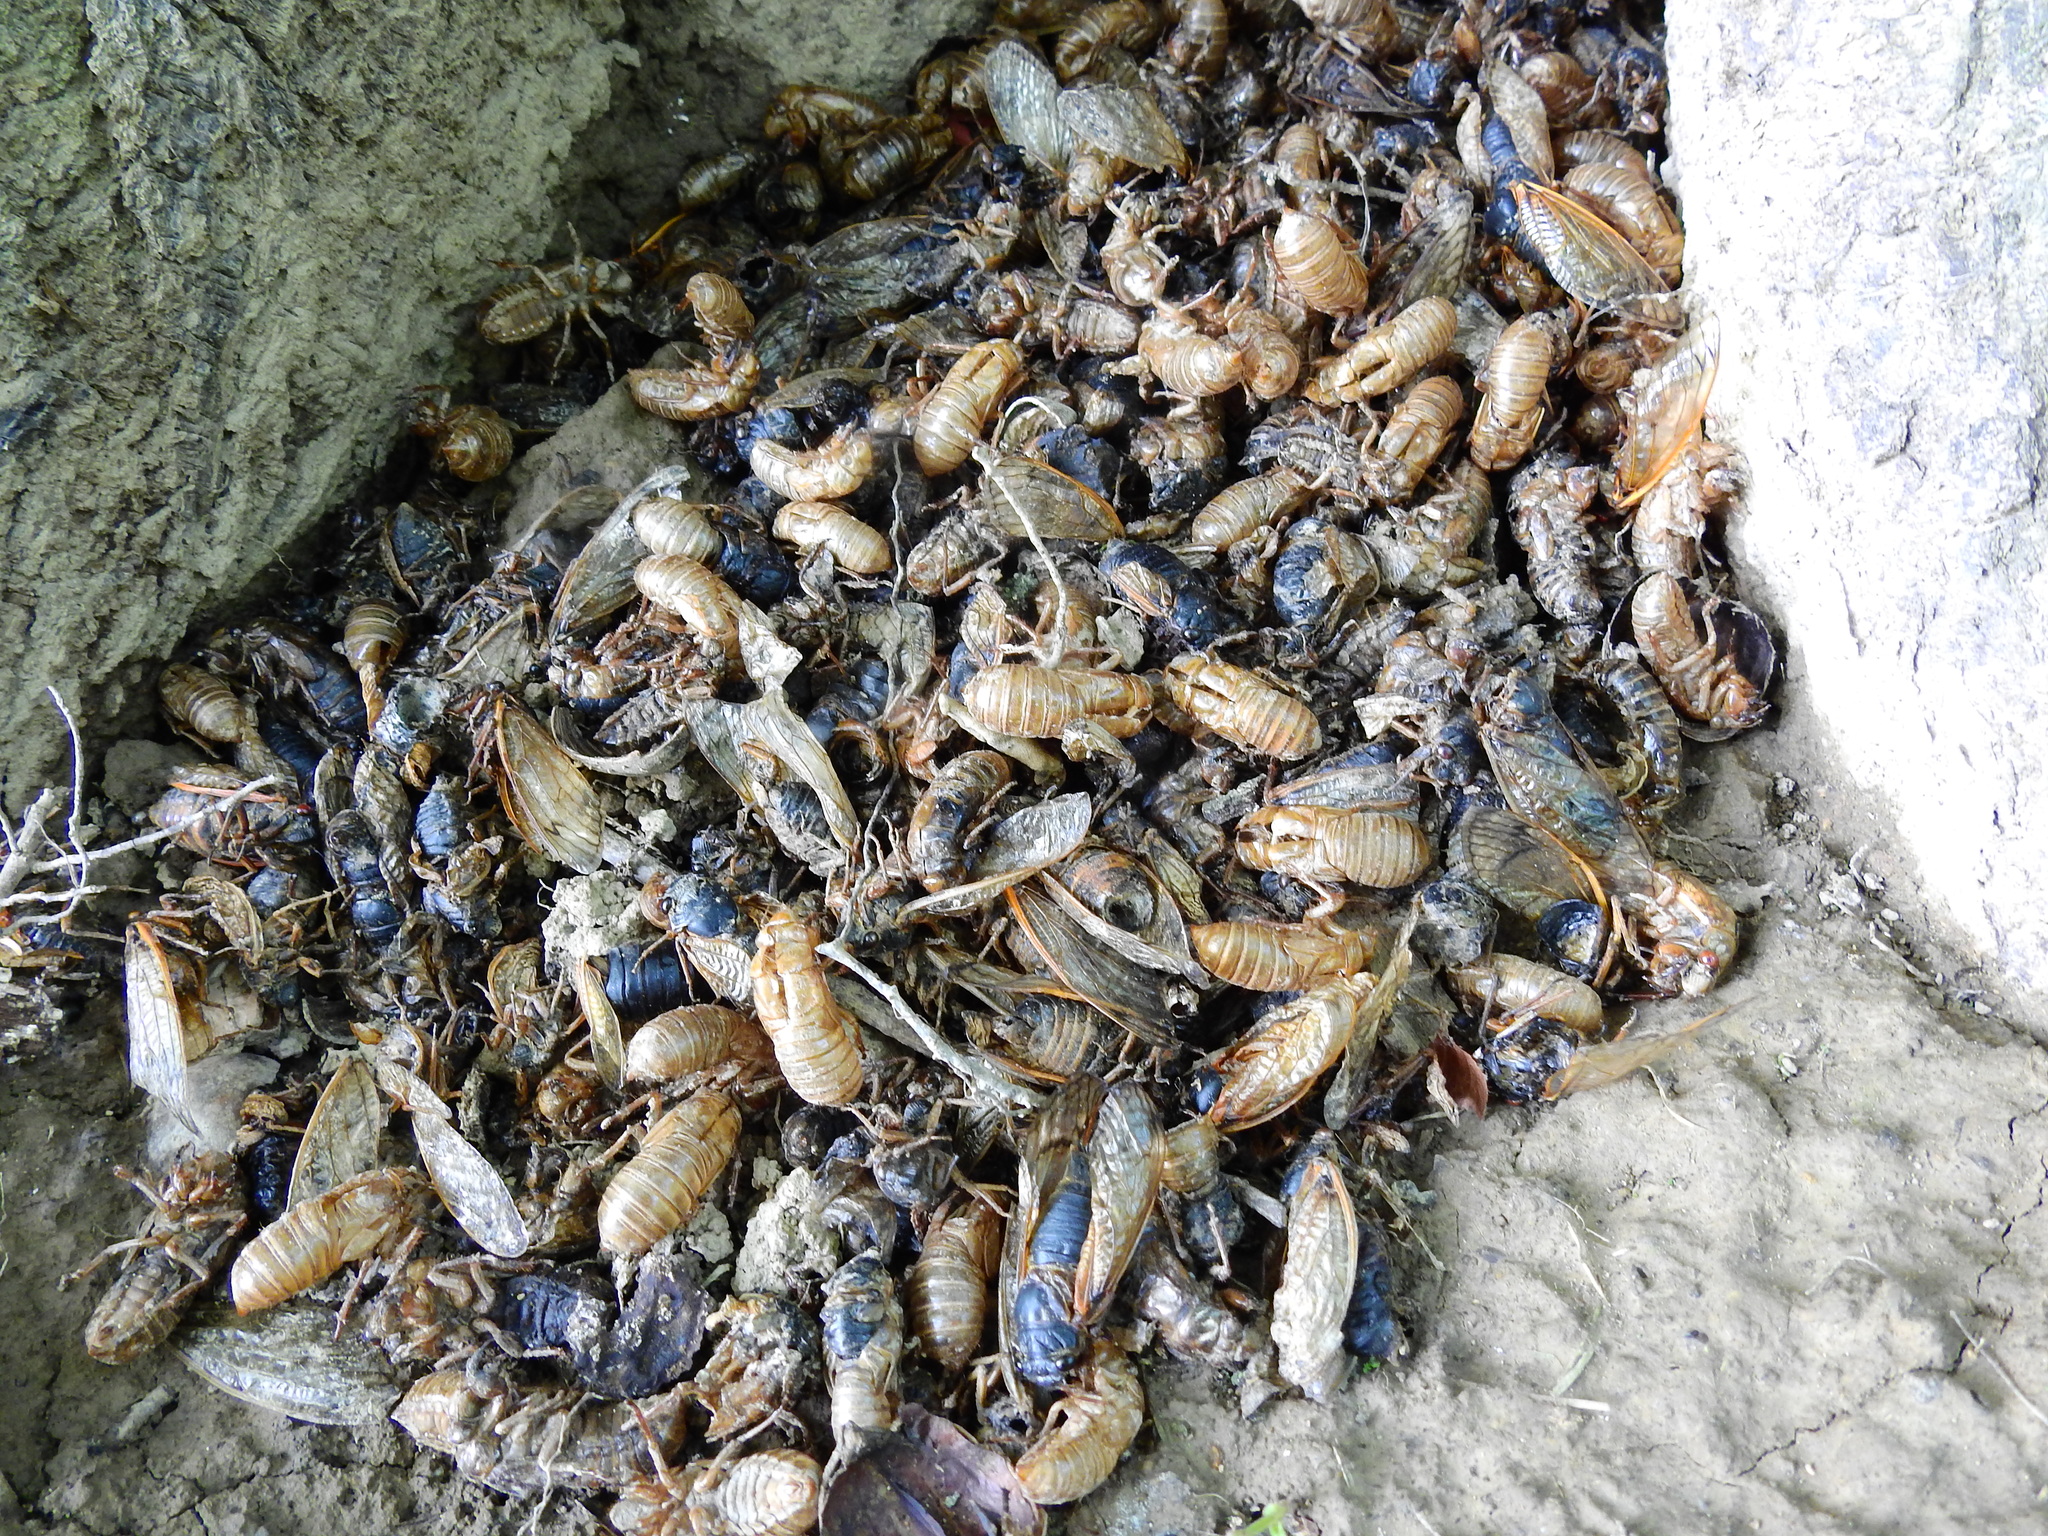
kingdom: Animalia
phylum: Arthropoda
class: Insecta
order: Hemiptera
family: Cicadidae
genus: Magicicada
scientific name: Magicicada
